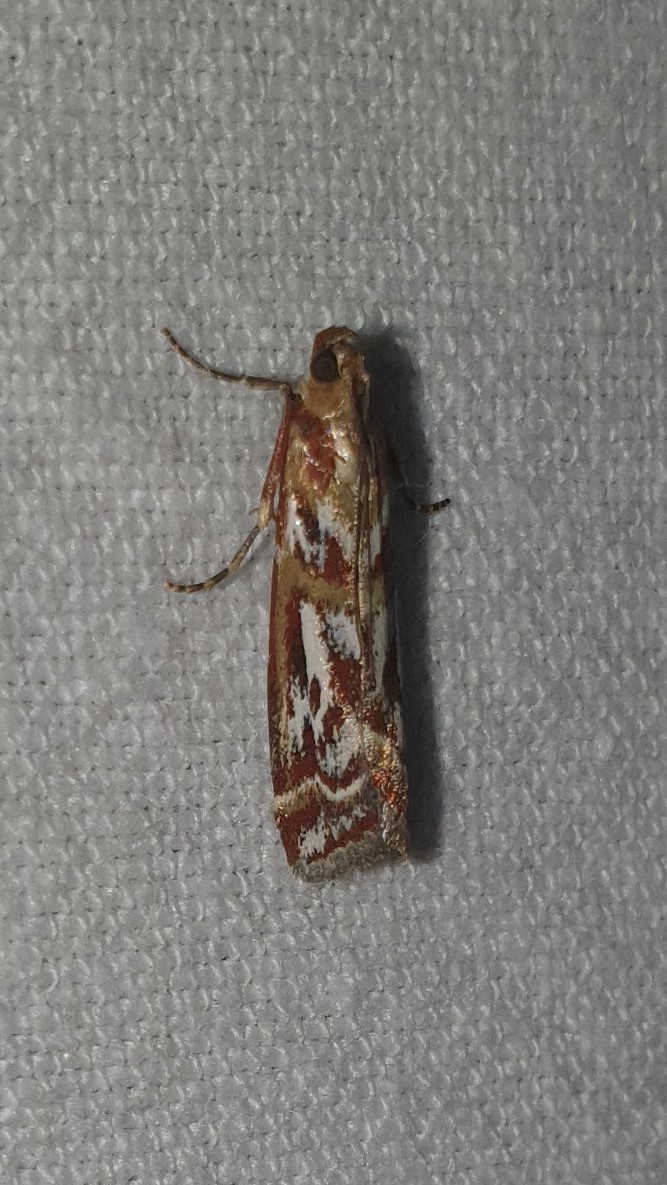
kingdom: Animalia
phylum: Arthropoda
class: Insecta
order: Lepidoptera
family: Pyralidae
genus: Acrobasis
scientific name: Acrobasis porphyrella
